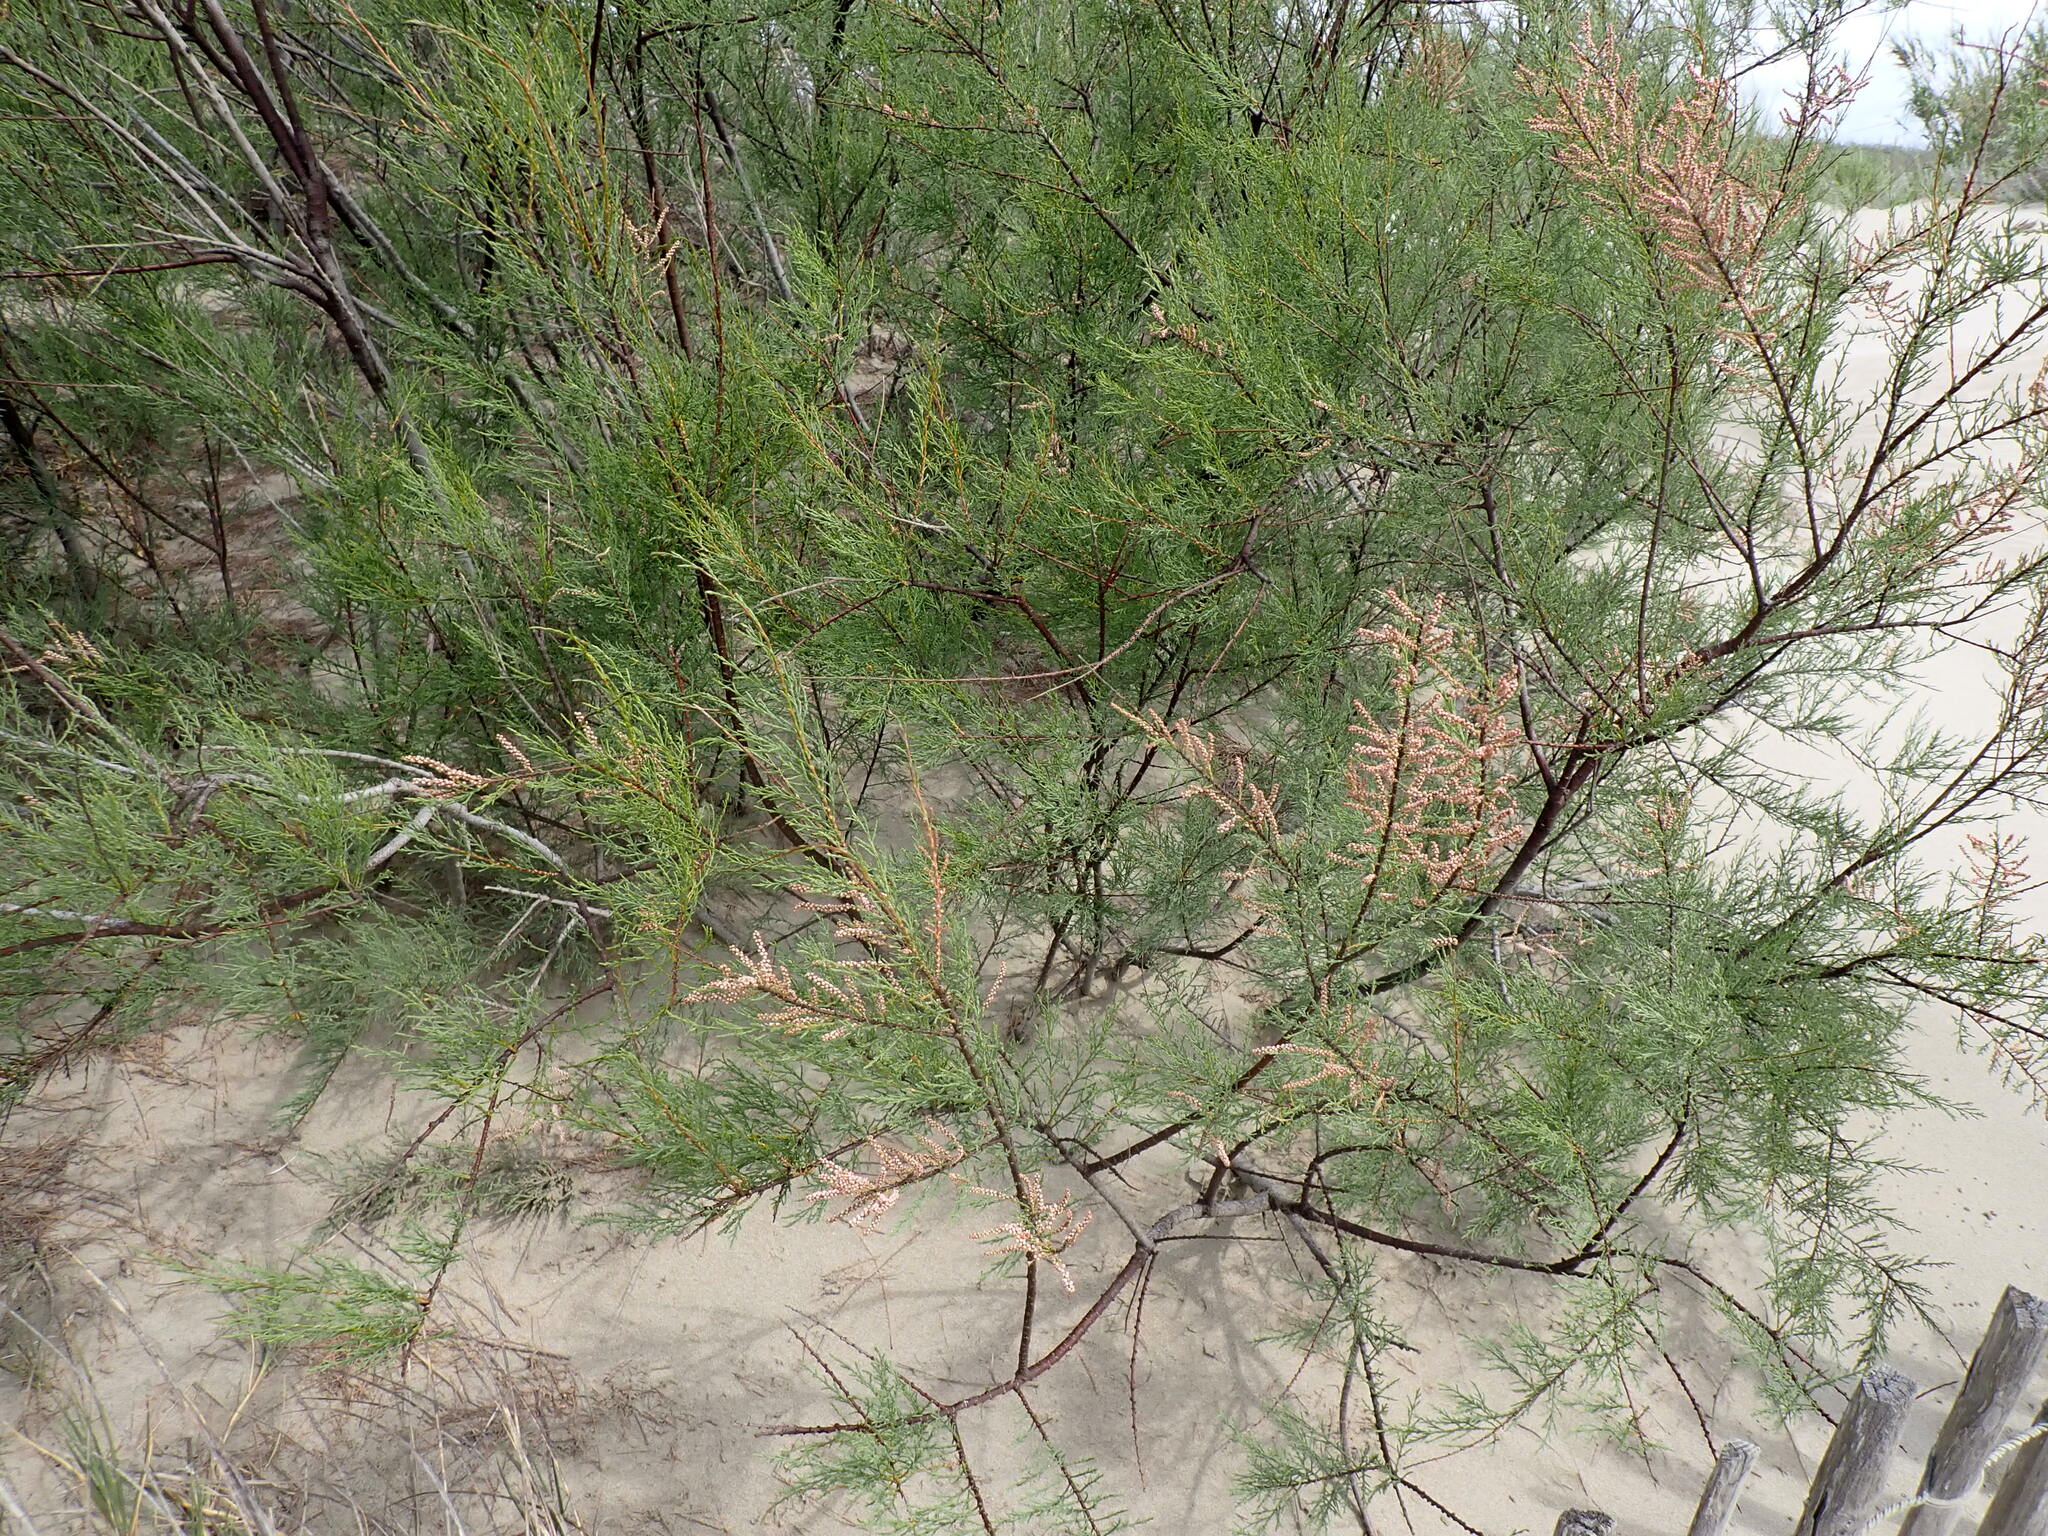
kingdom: Plantae
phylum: Tracheophyta
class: Magnoliopsida
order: Caryophyllales
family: Tamaricaceae
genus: Tamarix
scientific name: Tamarix gallica
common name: Tamarisk
